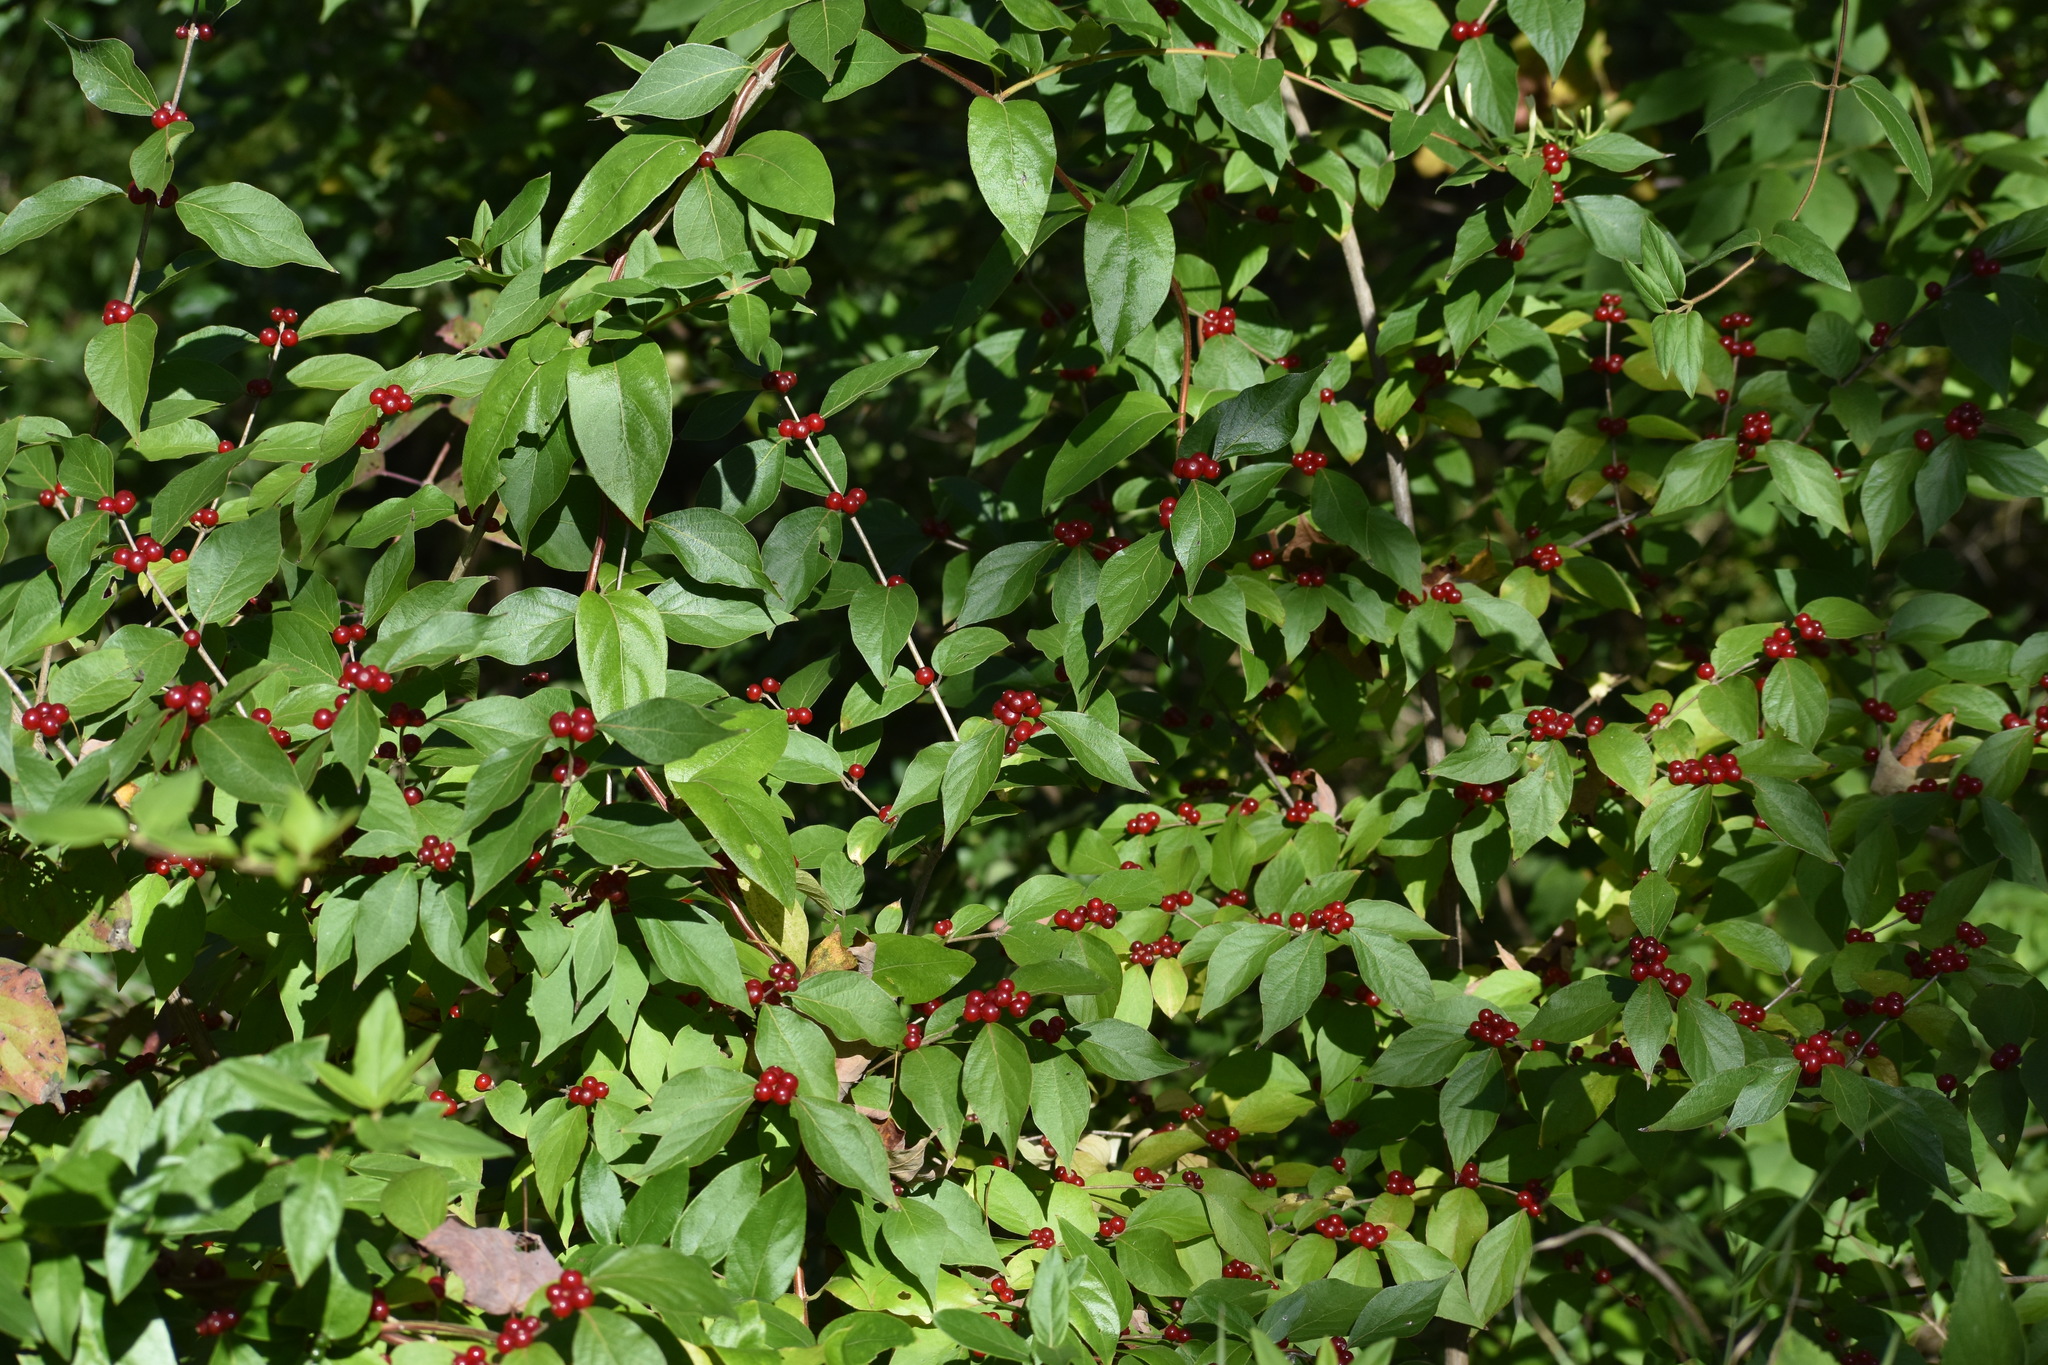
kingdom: Plantae
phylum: Tracheophyta
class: Magnoliopsida
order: Dipsacales
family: Caprifoliaceae
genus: Lonicera
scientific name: Lonicera maackii
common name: Amur honeysuckle
